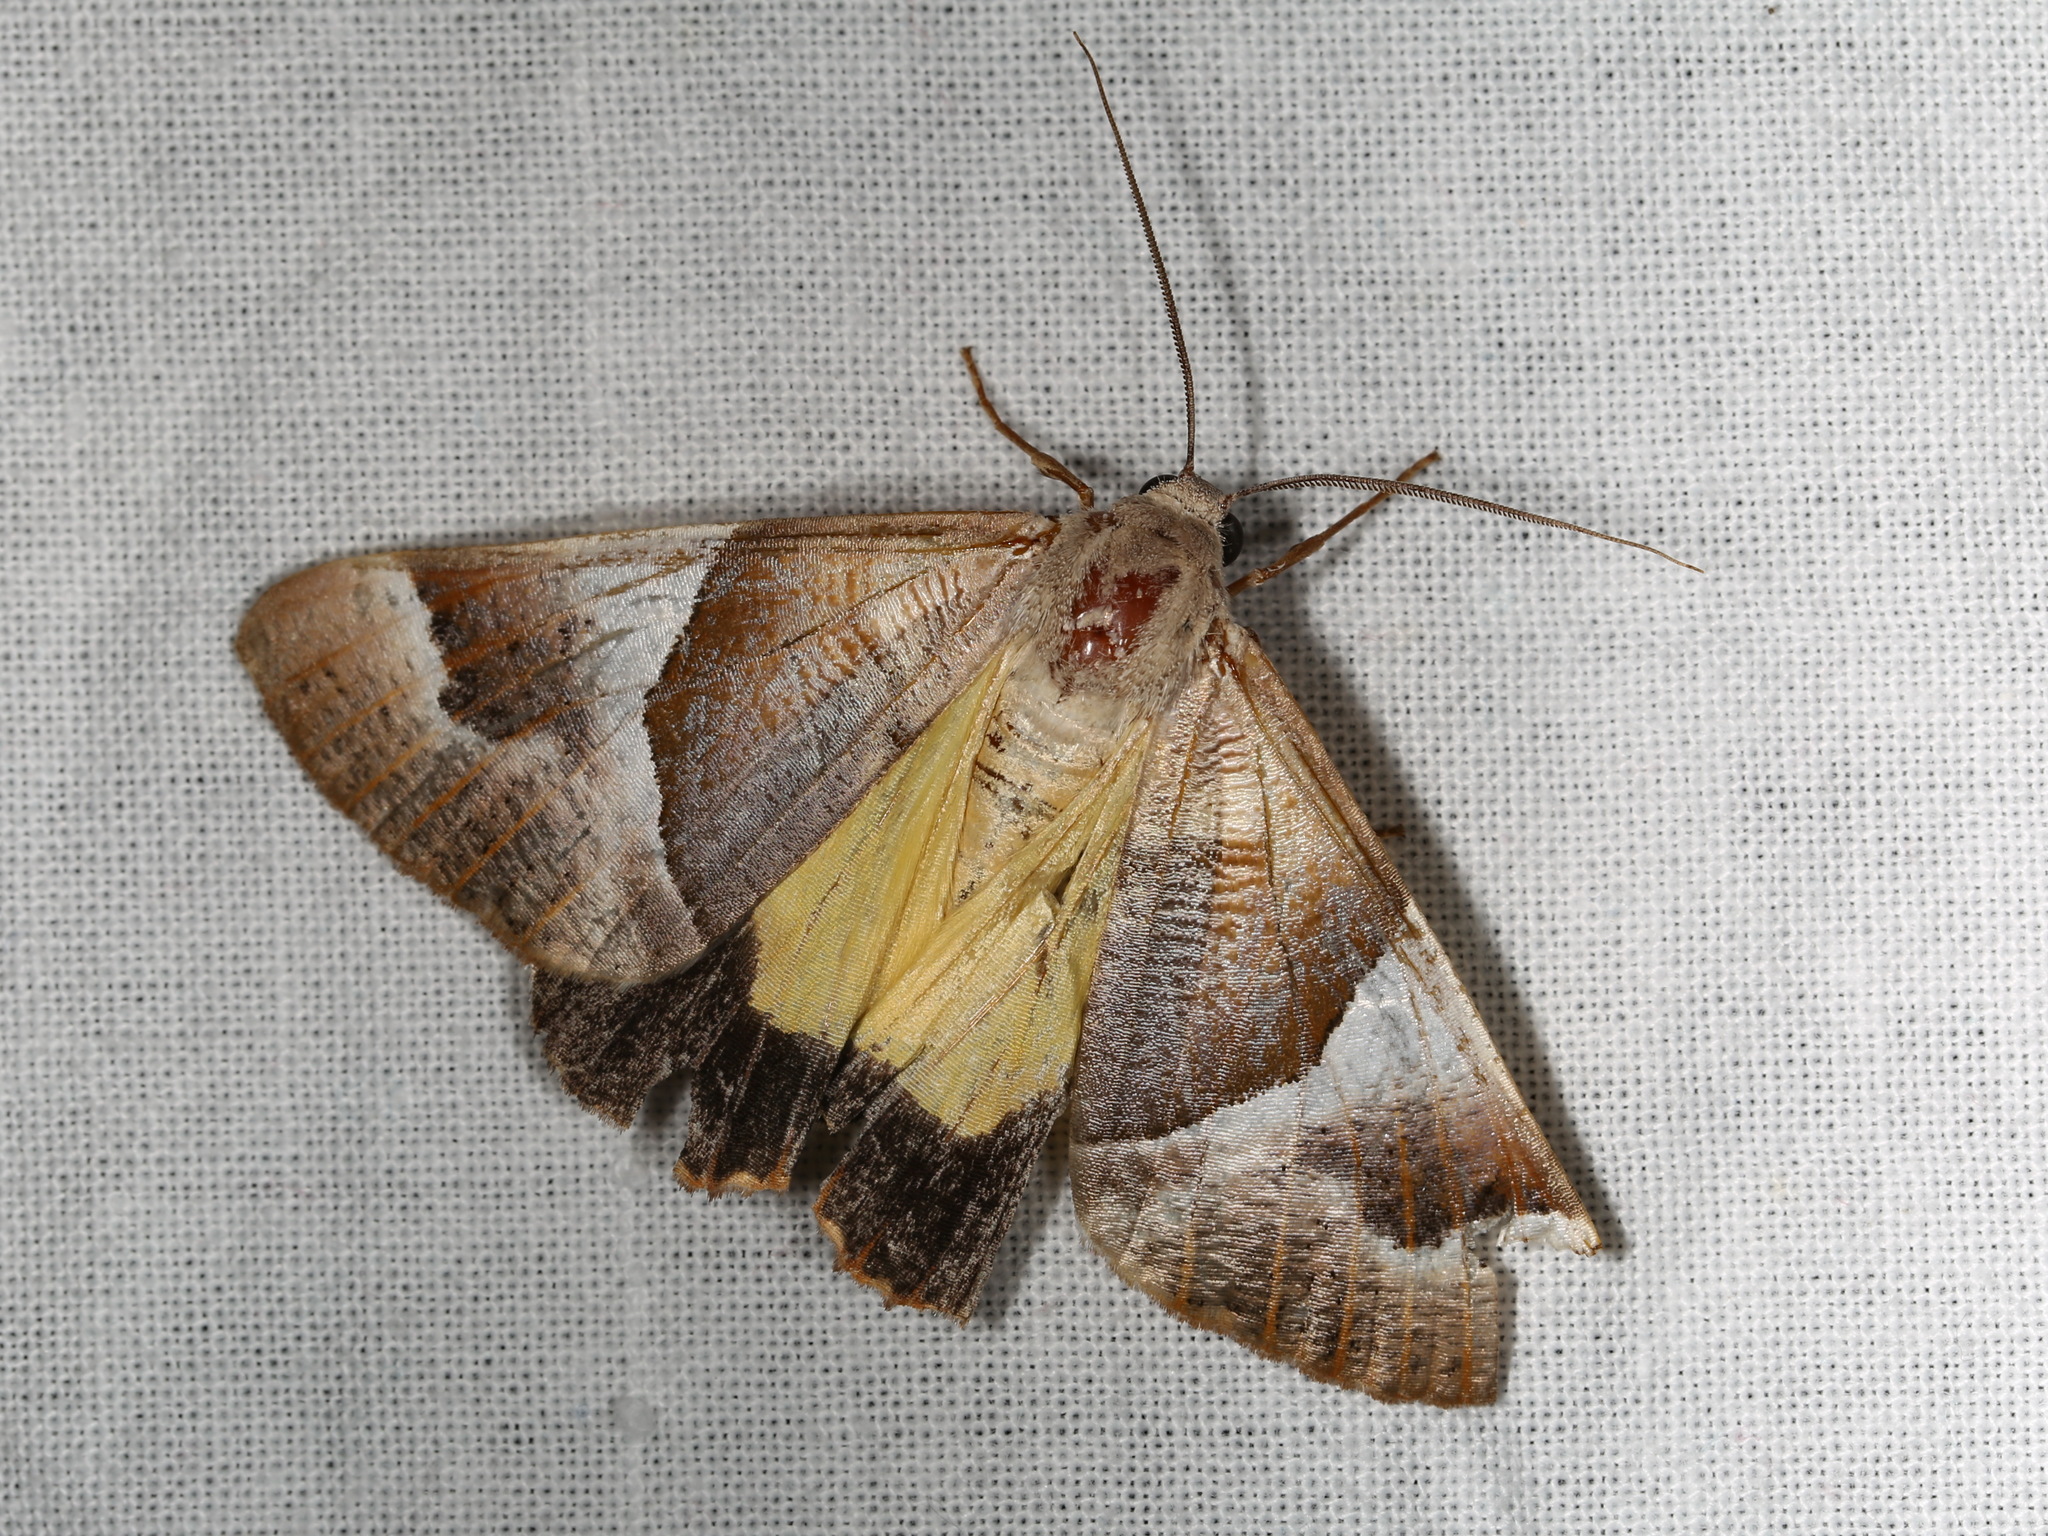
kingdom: Animalia
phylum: Arthropoda
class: Insecta
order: Lepidoptera
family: Geometridae
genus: Niceteria
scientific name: Niceteria macrocosma
